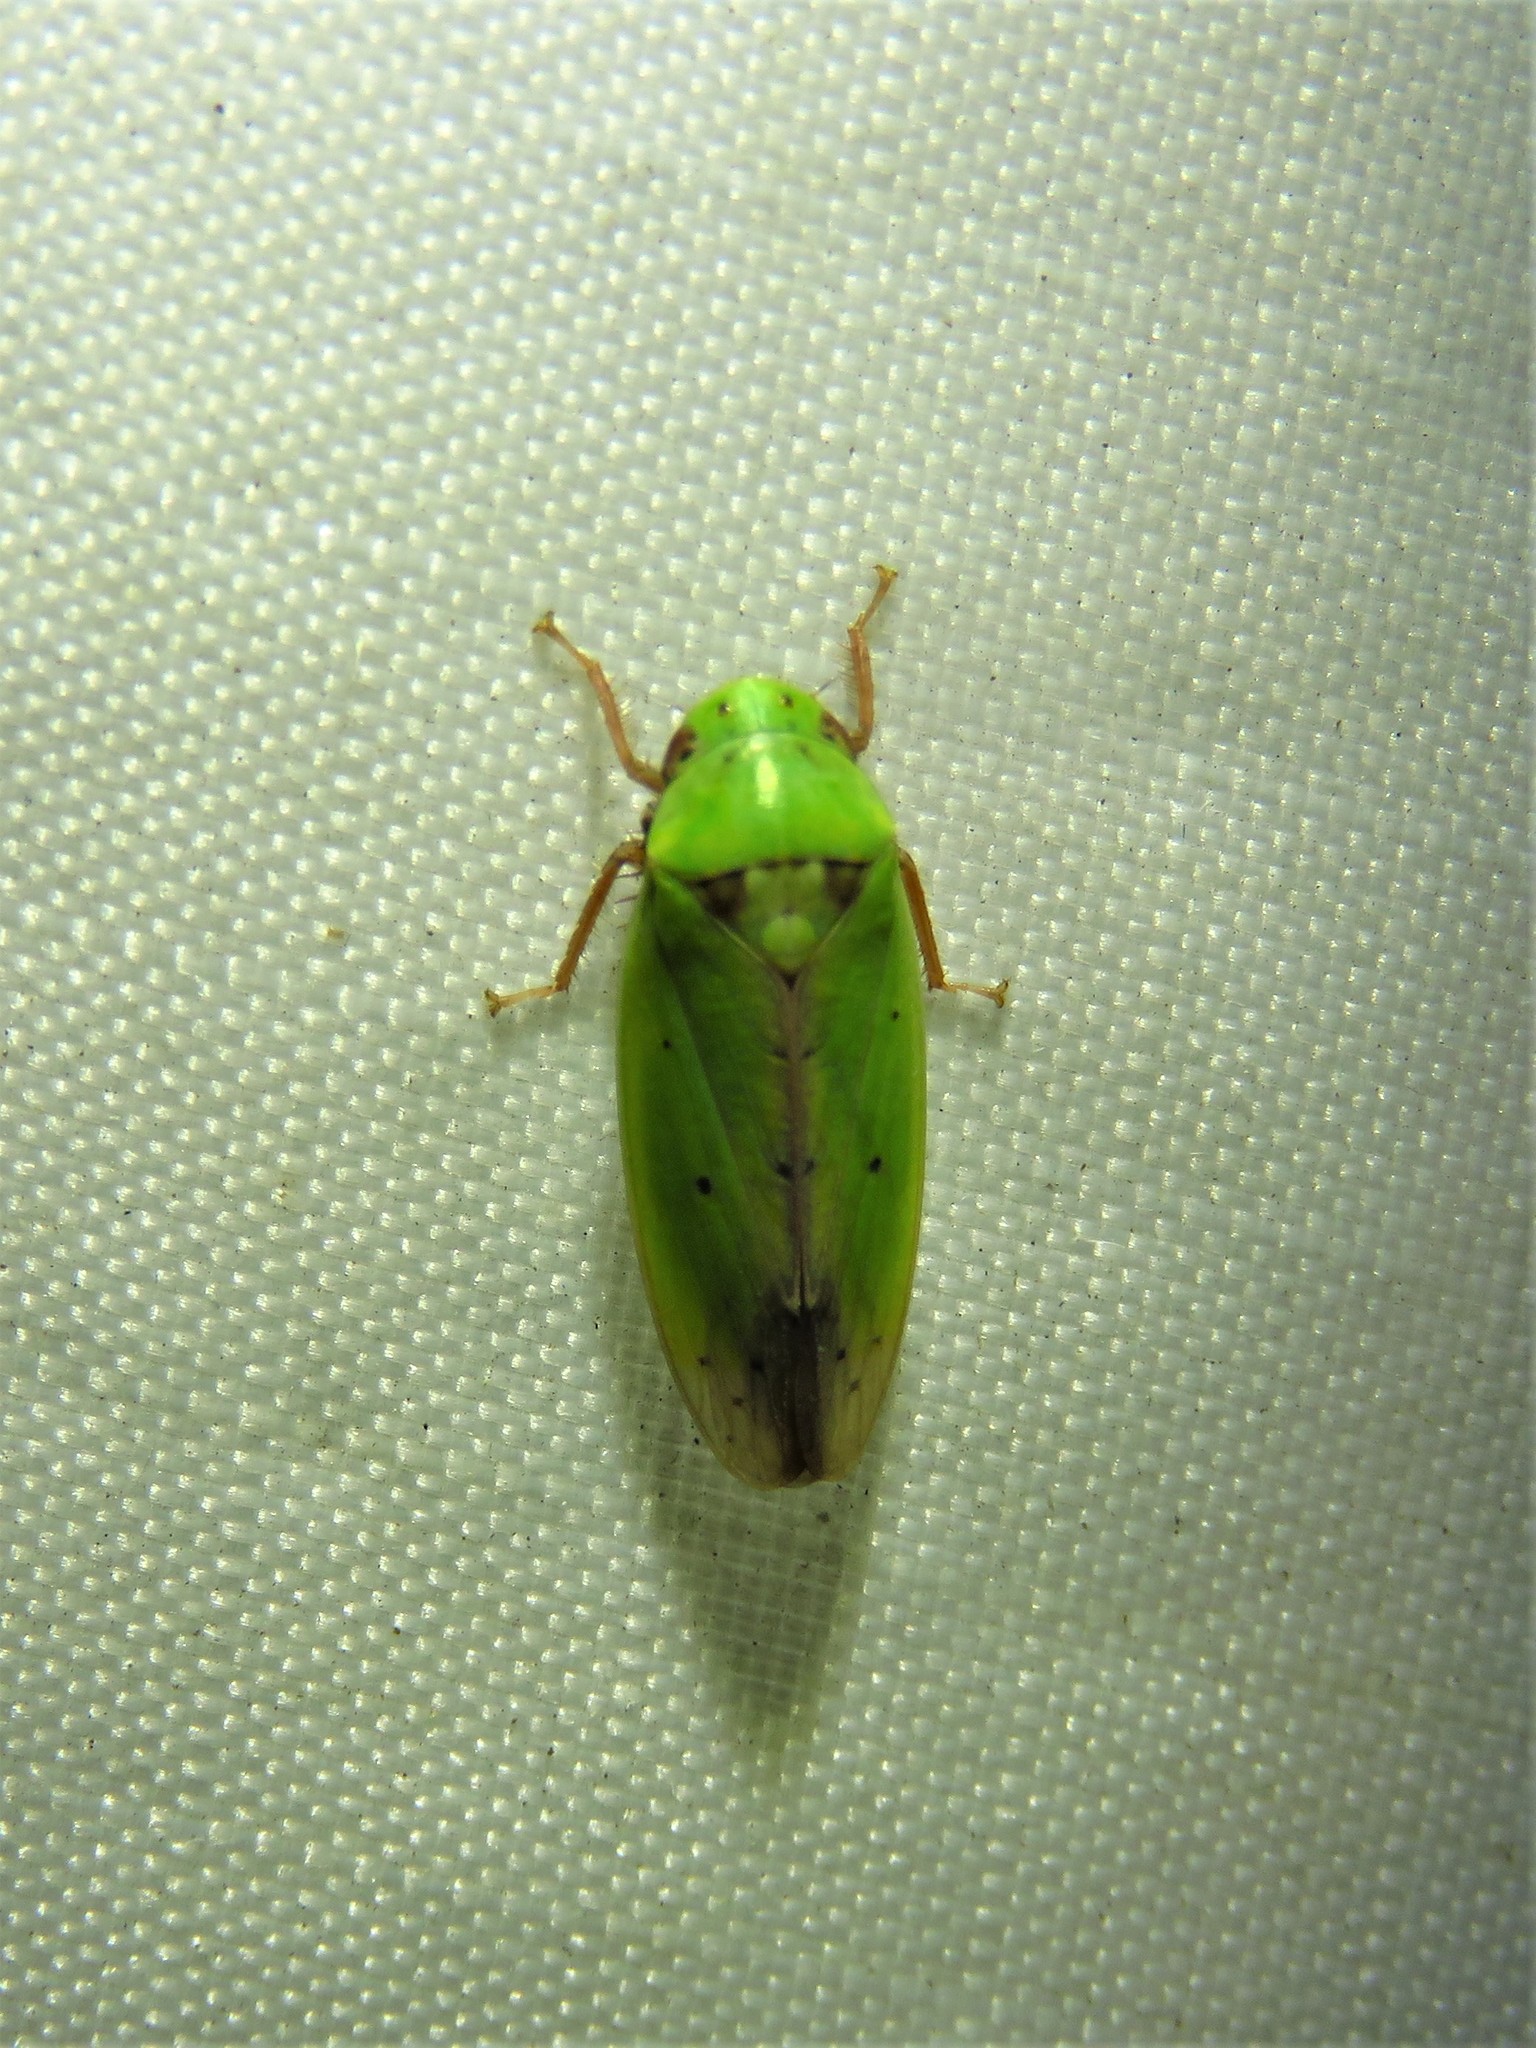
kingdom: Animalia
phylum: Arthropoda
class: Insecta
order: Hemiptera
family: Cicadellidae
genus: Ponana
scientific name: Ponana
